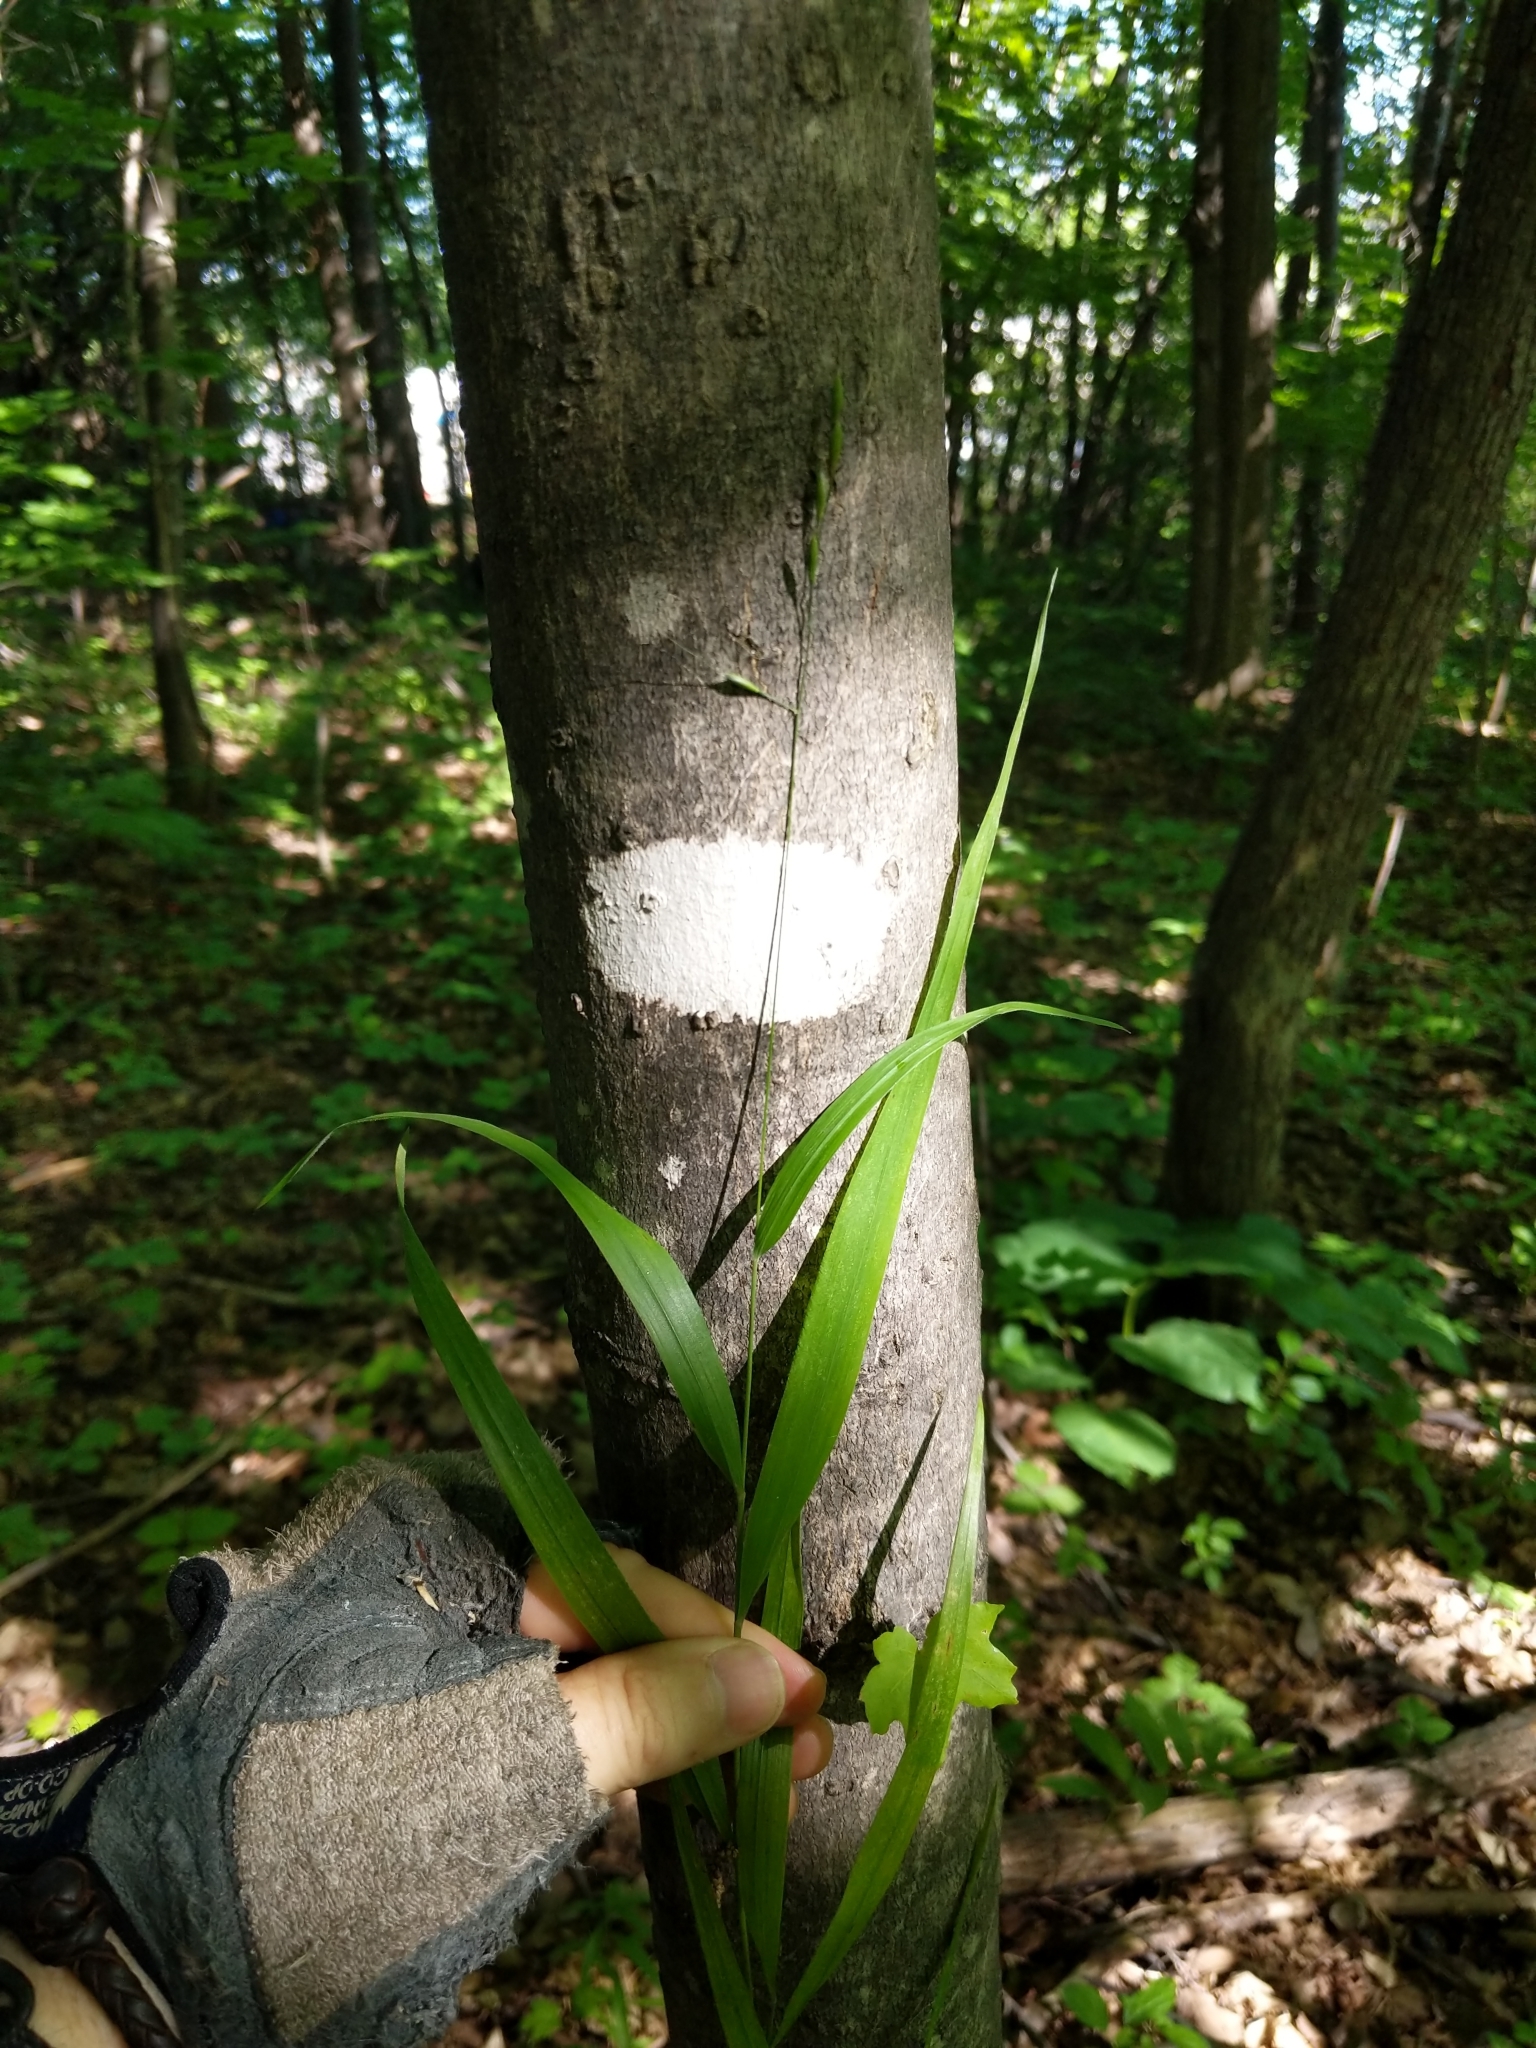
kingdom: Plantae
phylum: Tracheophyta
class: Liliopsida
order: Poales
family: Poaceae
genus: Patis
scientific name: Patis racemosa
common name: Black-fruited mountain rice
